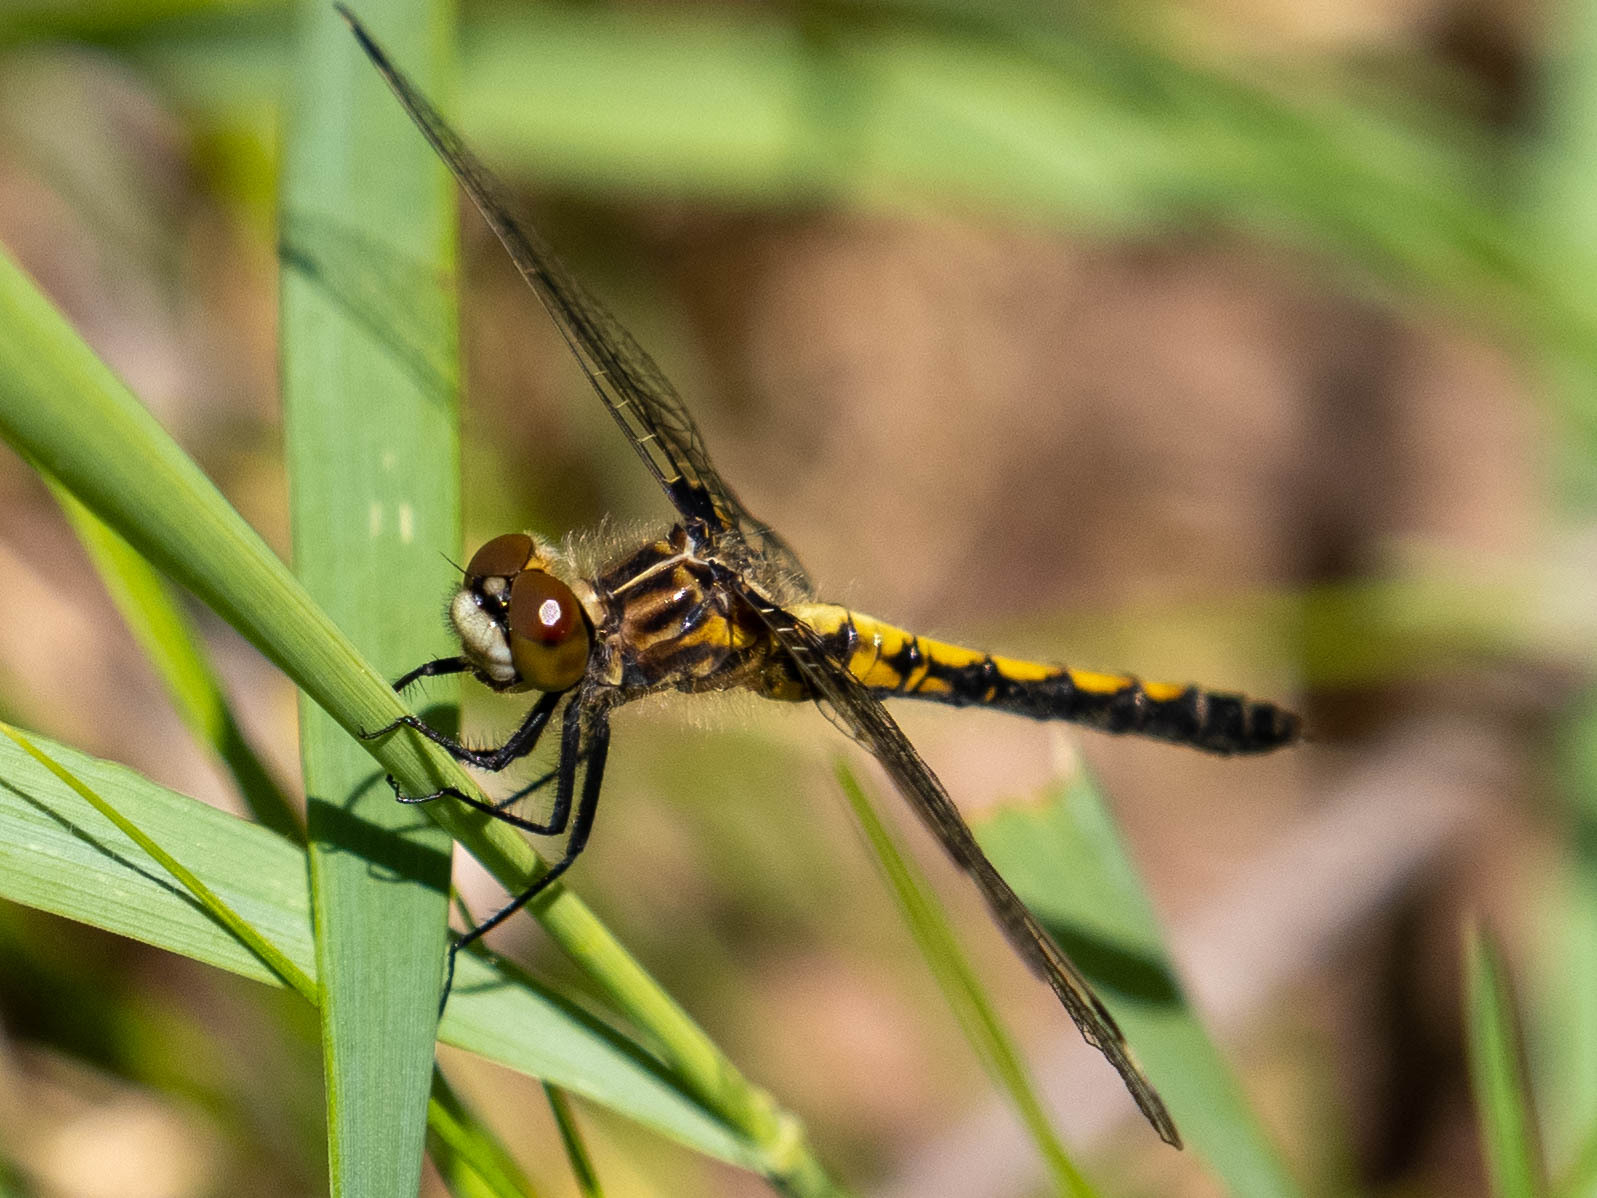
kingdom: Animalia
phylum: Arthropoda
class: Insecta
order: Odonata
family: Libellulidae
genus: Leucorrhinia
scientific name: Leucorrhinia hudsonica
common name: Hudsonian whiteface
